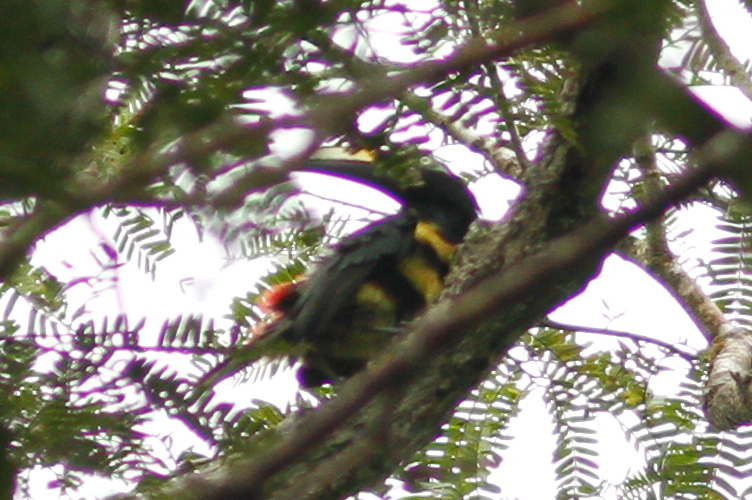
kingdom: Animalia
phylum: Chordata
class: Aves
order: Piciformes
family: Ramphastidae
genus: Pteroglossus
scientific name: Pteroglossus pluricinctus
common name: Many-banded aracari
